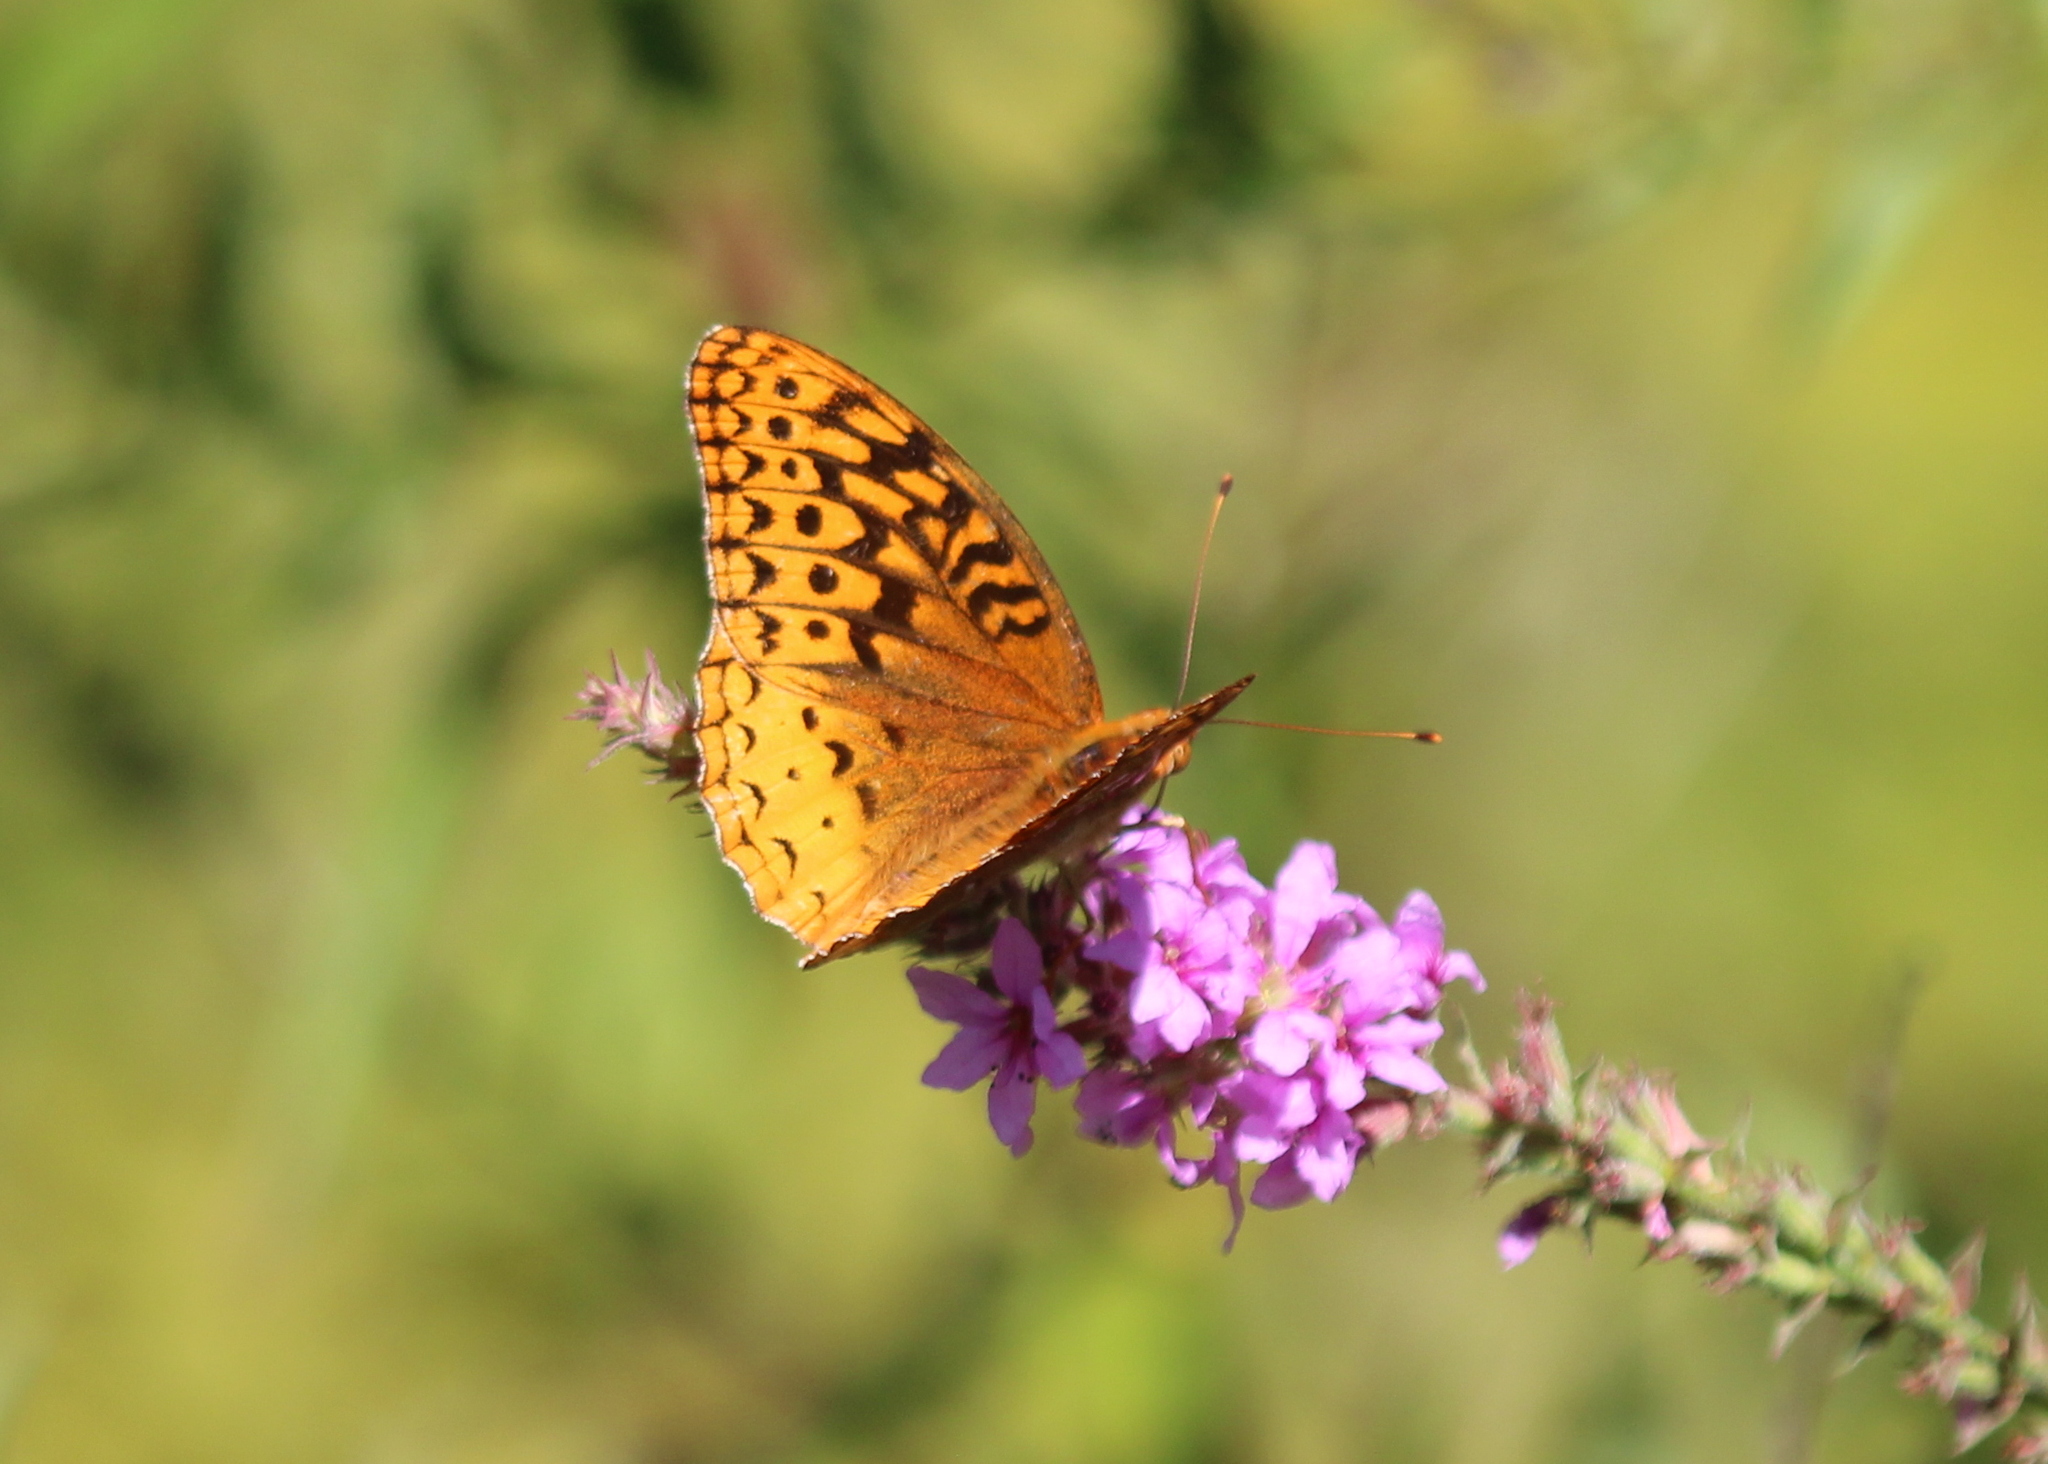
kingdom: Animalia
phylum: Arthropoda
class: Insecta
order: Lepidoptera
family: Nymphalidae
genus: Speyeria
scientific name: Speyeria cybele
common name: Great spangled fritillary
